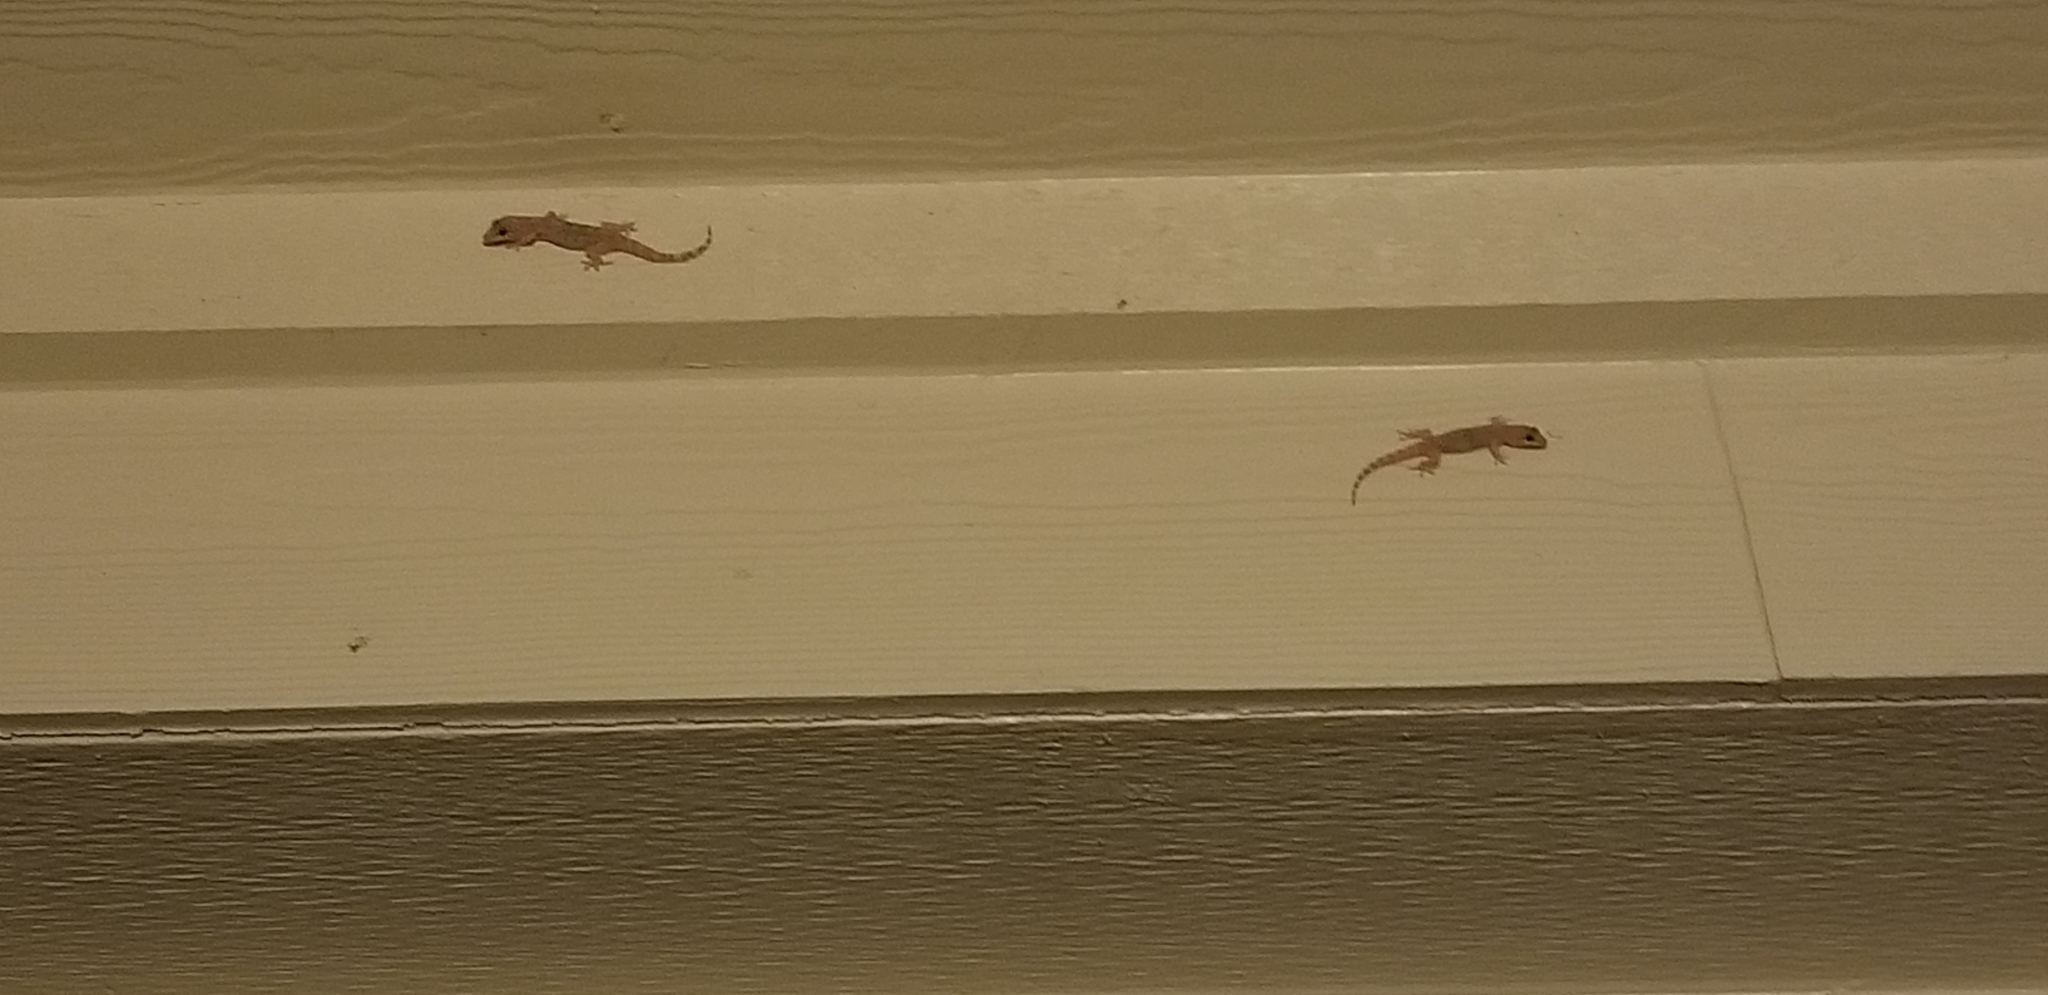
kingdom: Animalia
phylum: Chordata
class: Squamata
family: Gekkonidae
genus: Hemidactylus
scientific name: Hemidactylus turcicus
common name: Turkish gecko
